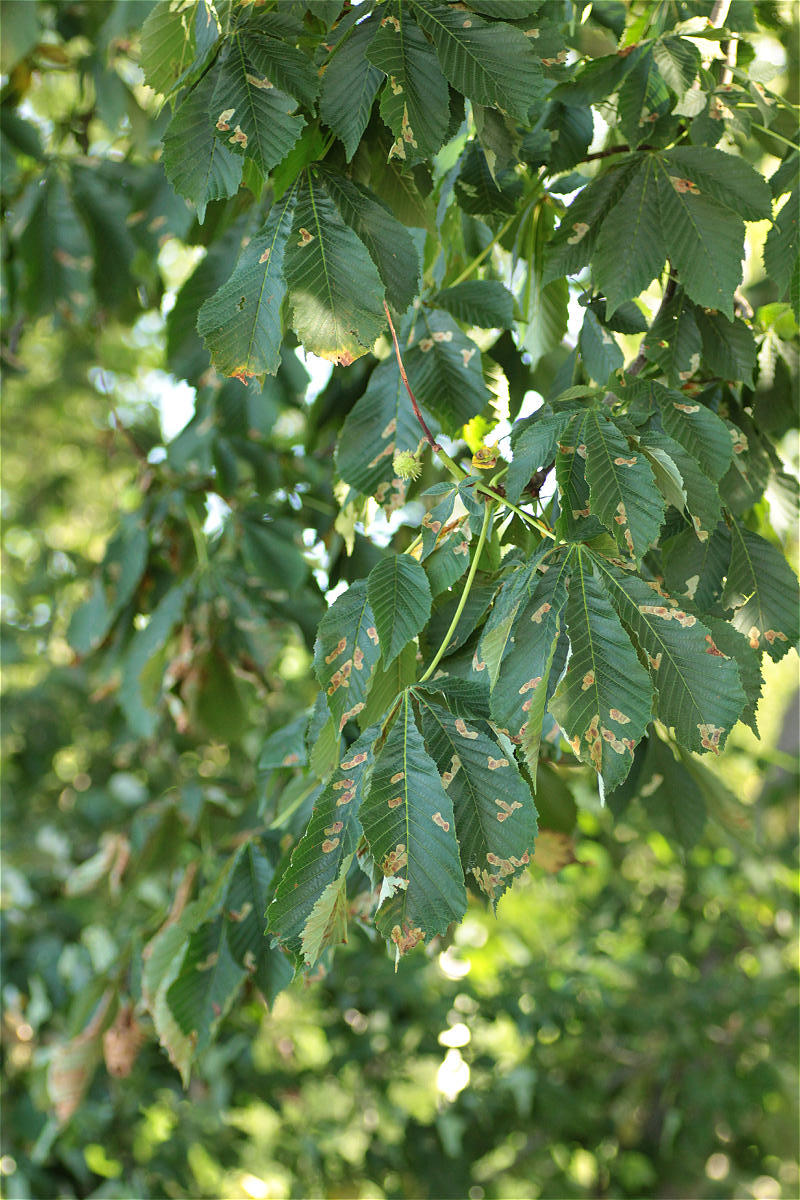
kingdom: Plantae
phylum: Tracheophyta
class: Magnoliopsida
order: Sapindales
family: Sapindaceae
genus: Aesculus
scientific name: Aesculus hippocastanum
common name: Horse-chestnut
